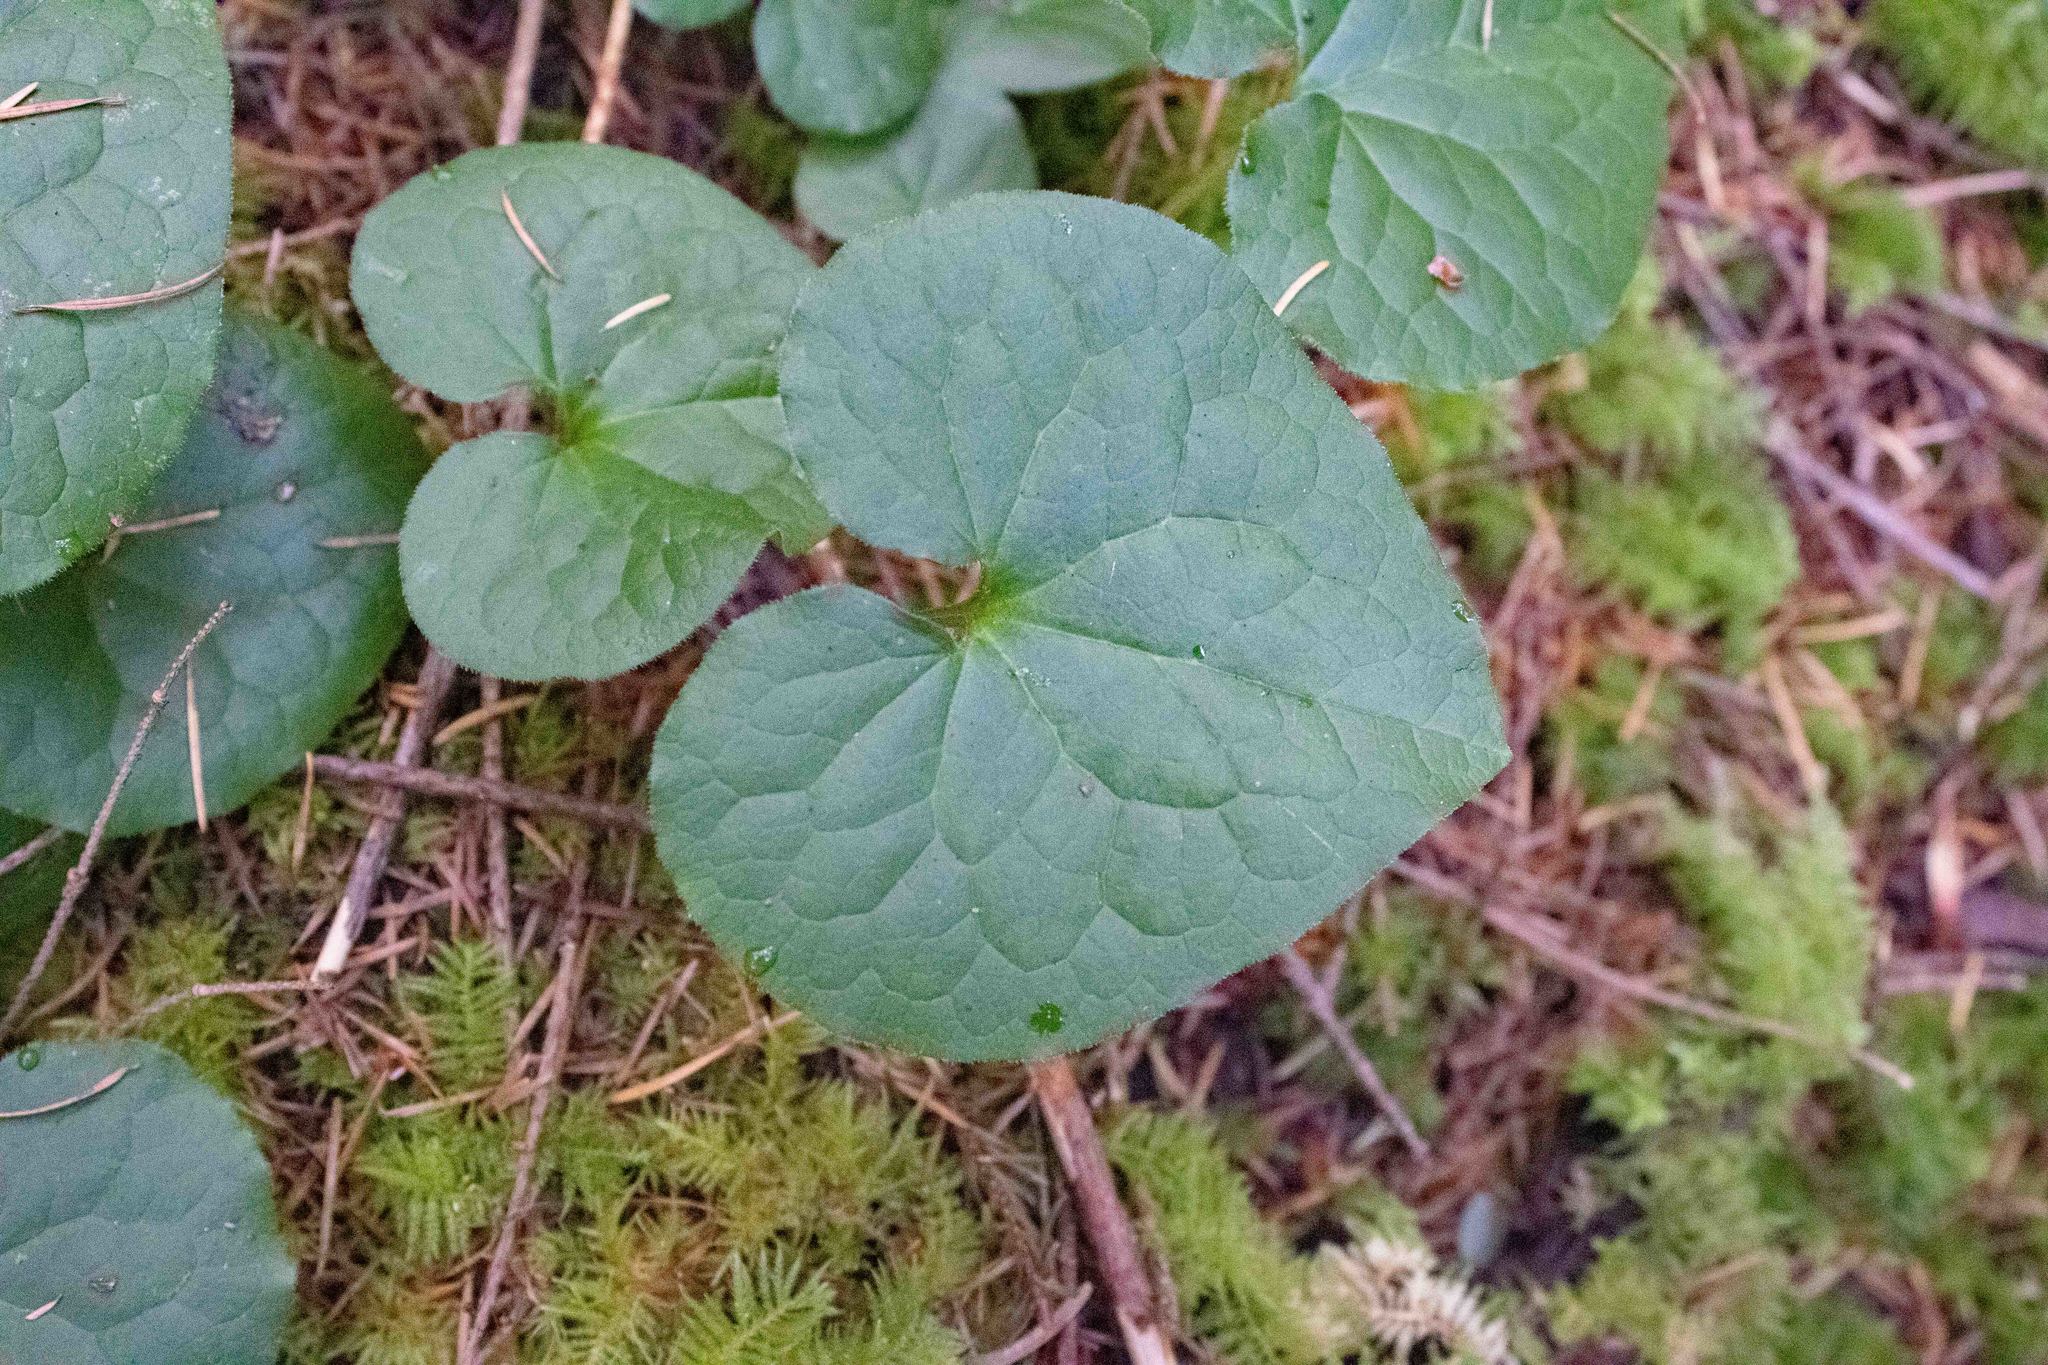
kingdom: Plantae
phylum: Tracheophyta
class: Magnoliopsida
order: Piperales
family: Aristolochiaceae
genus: Asarum
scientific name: Asarum caudatum
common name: Wild ginger
